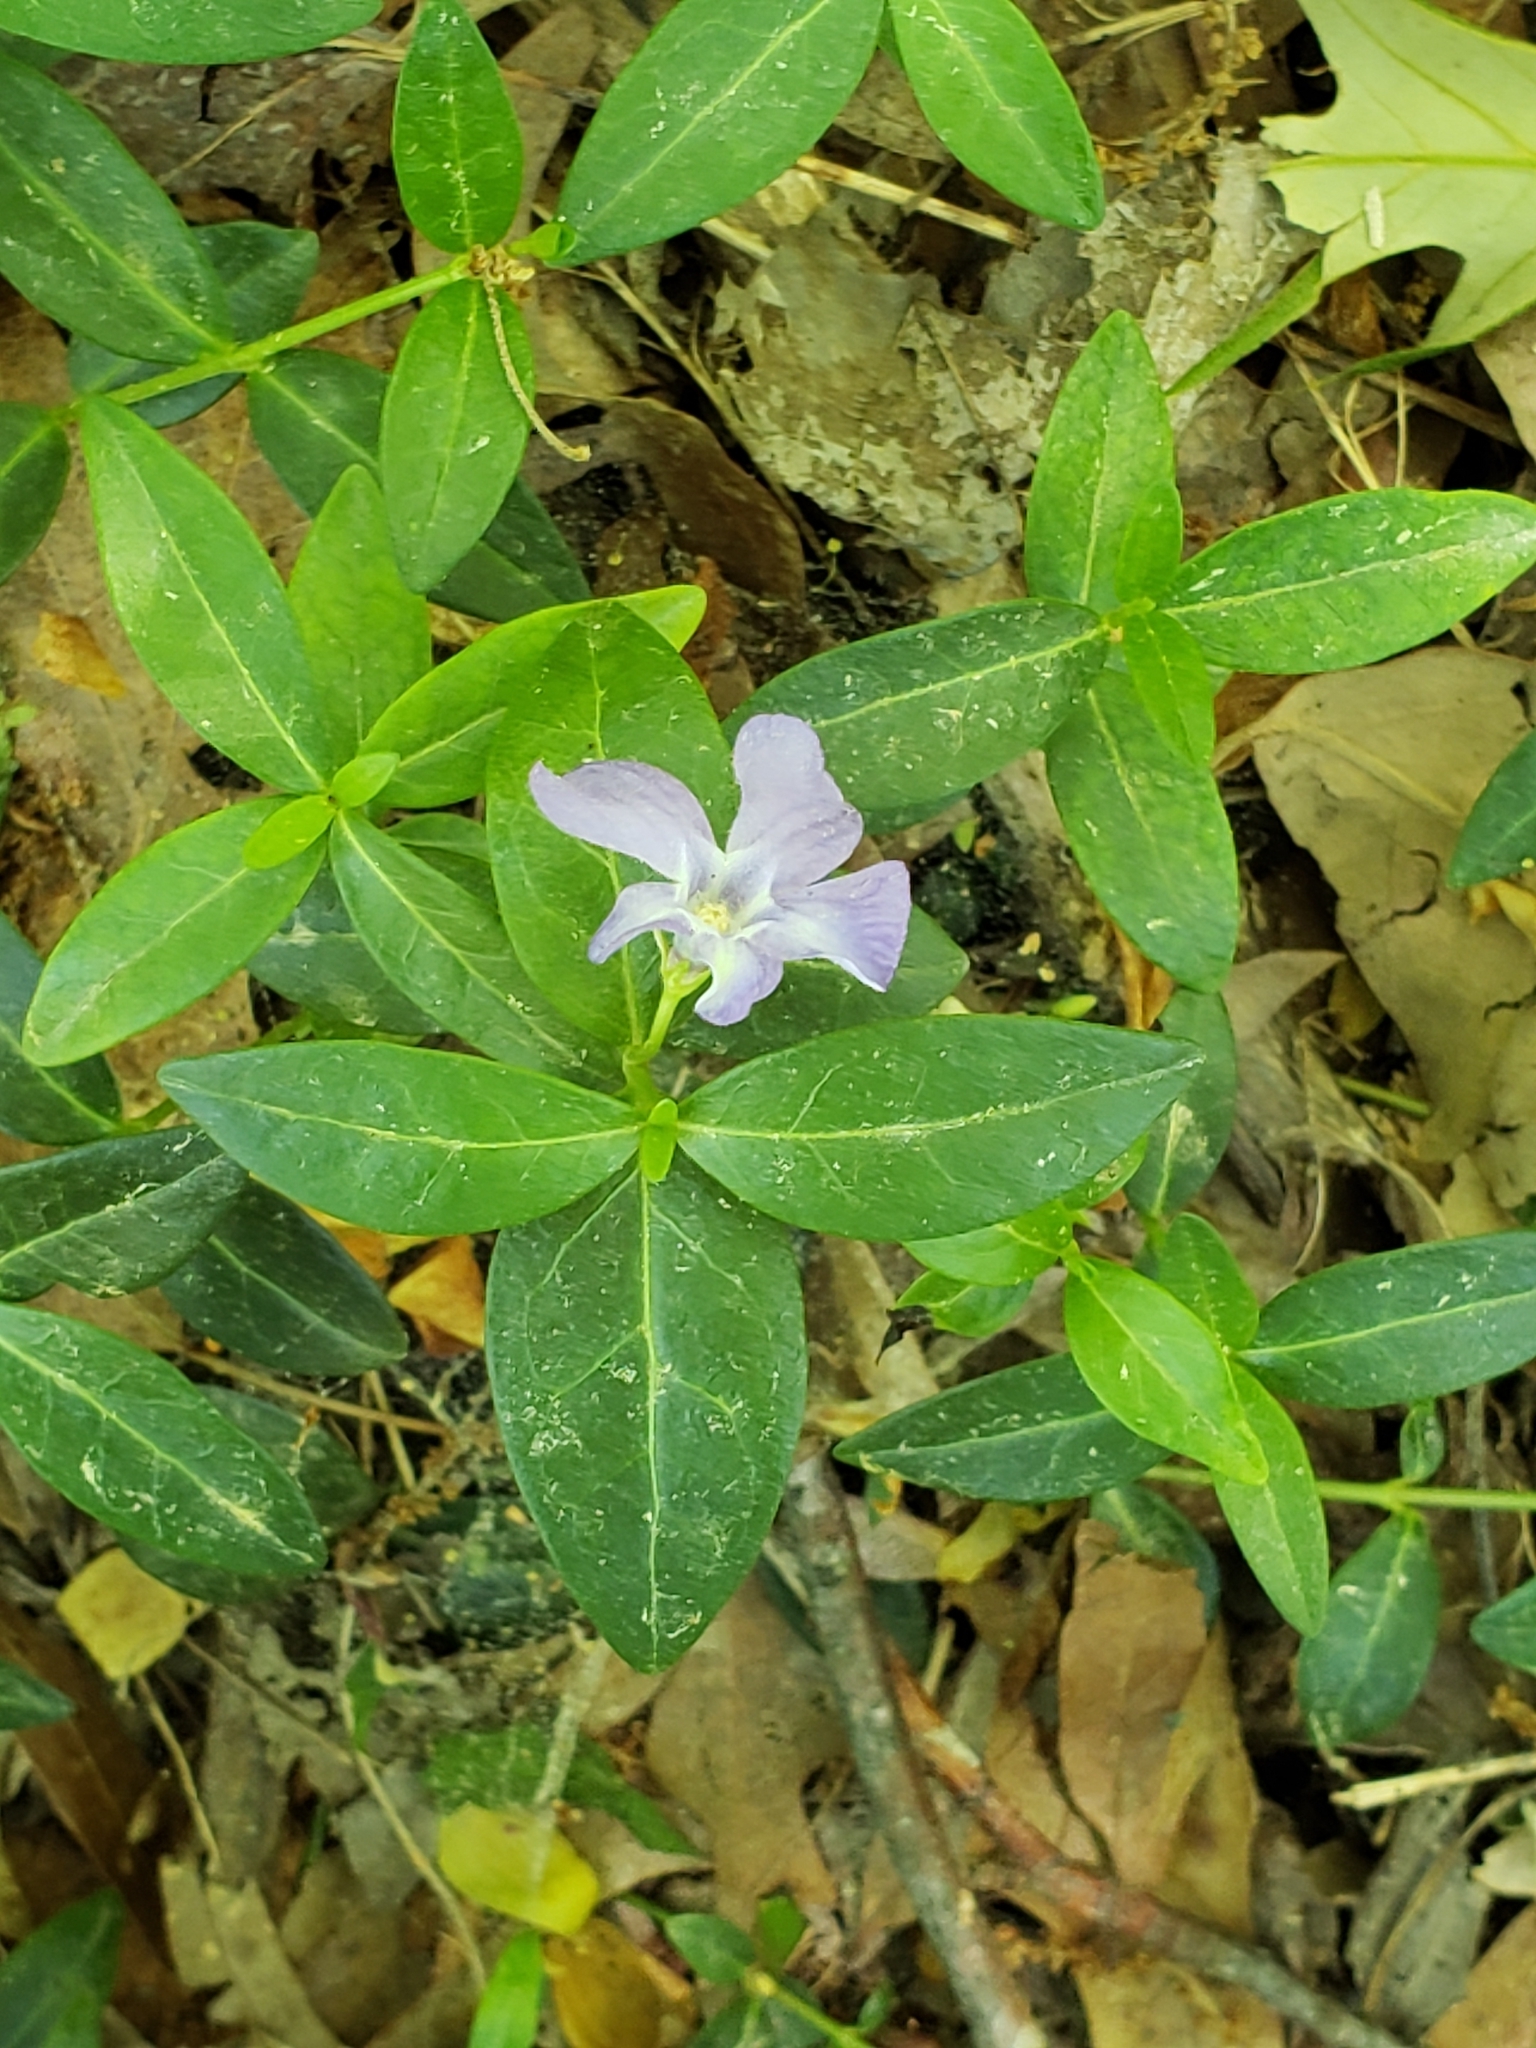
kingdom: Plantae
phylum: Tracheophyta
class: Magnoliopsida
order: Gentianales
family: Apocynaceae
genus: Vinca
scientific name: Vinca minor
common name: Lesser periwinkle
